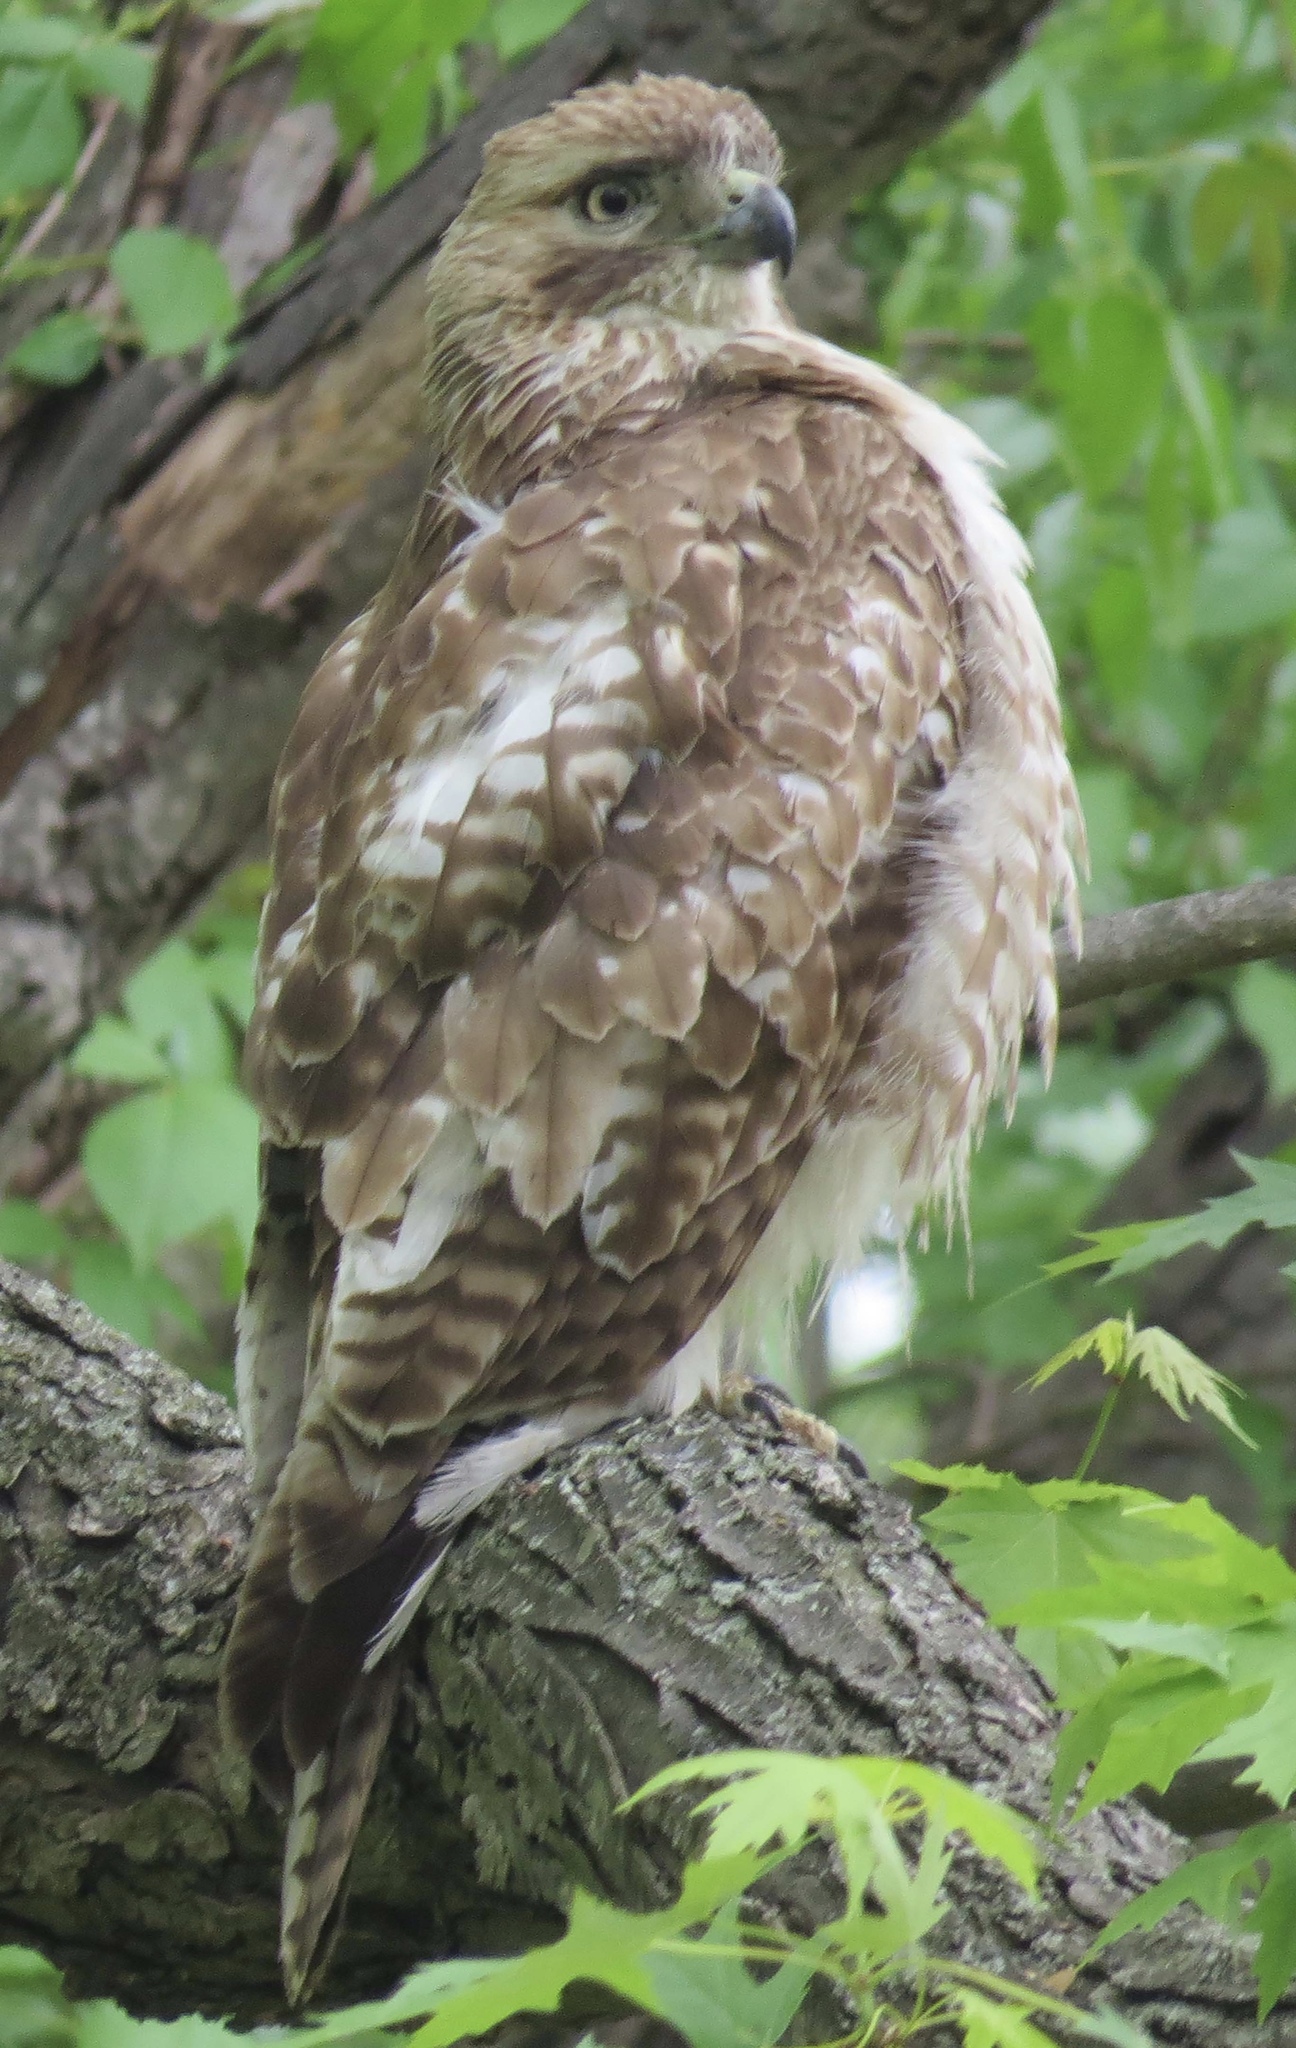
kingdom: Animalia
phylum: Chordata
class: Aves
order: Accipitriformes
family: Accipitridae
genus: Buteo
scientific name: Buteo jamaicensis
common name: Red-tailed hawk
